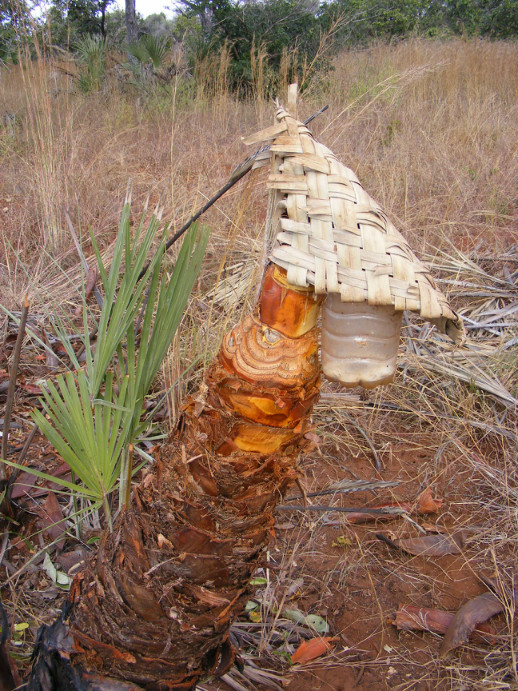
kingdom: Plantae
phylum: Tracheophyta
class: Liliopsida
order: Arecales
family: Arecaceae
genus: Hyphaene
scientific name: Hyphaene coriacea
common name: Ilala palm
